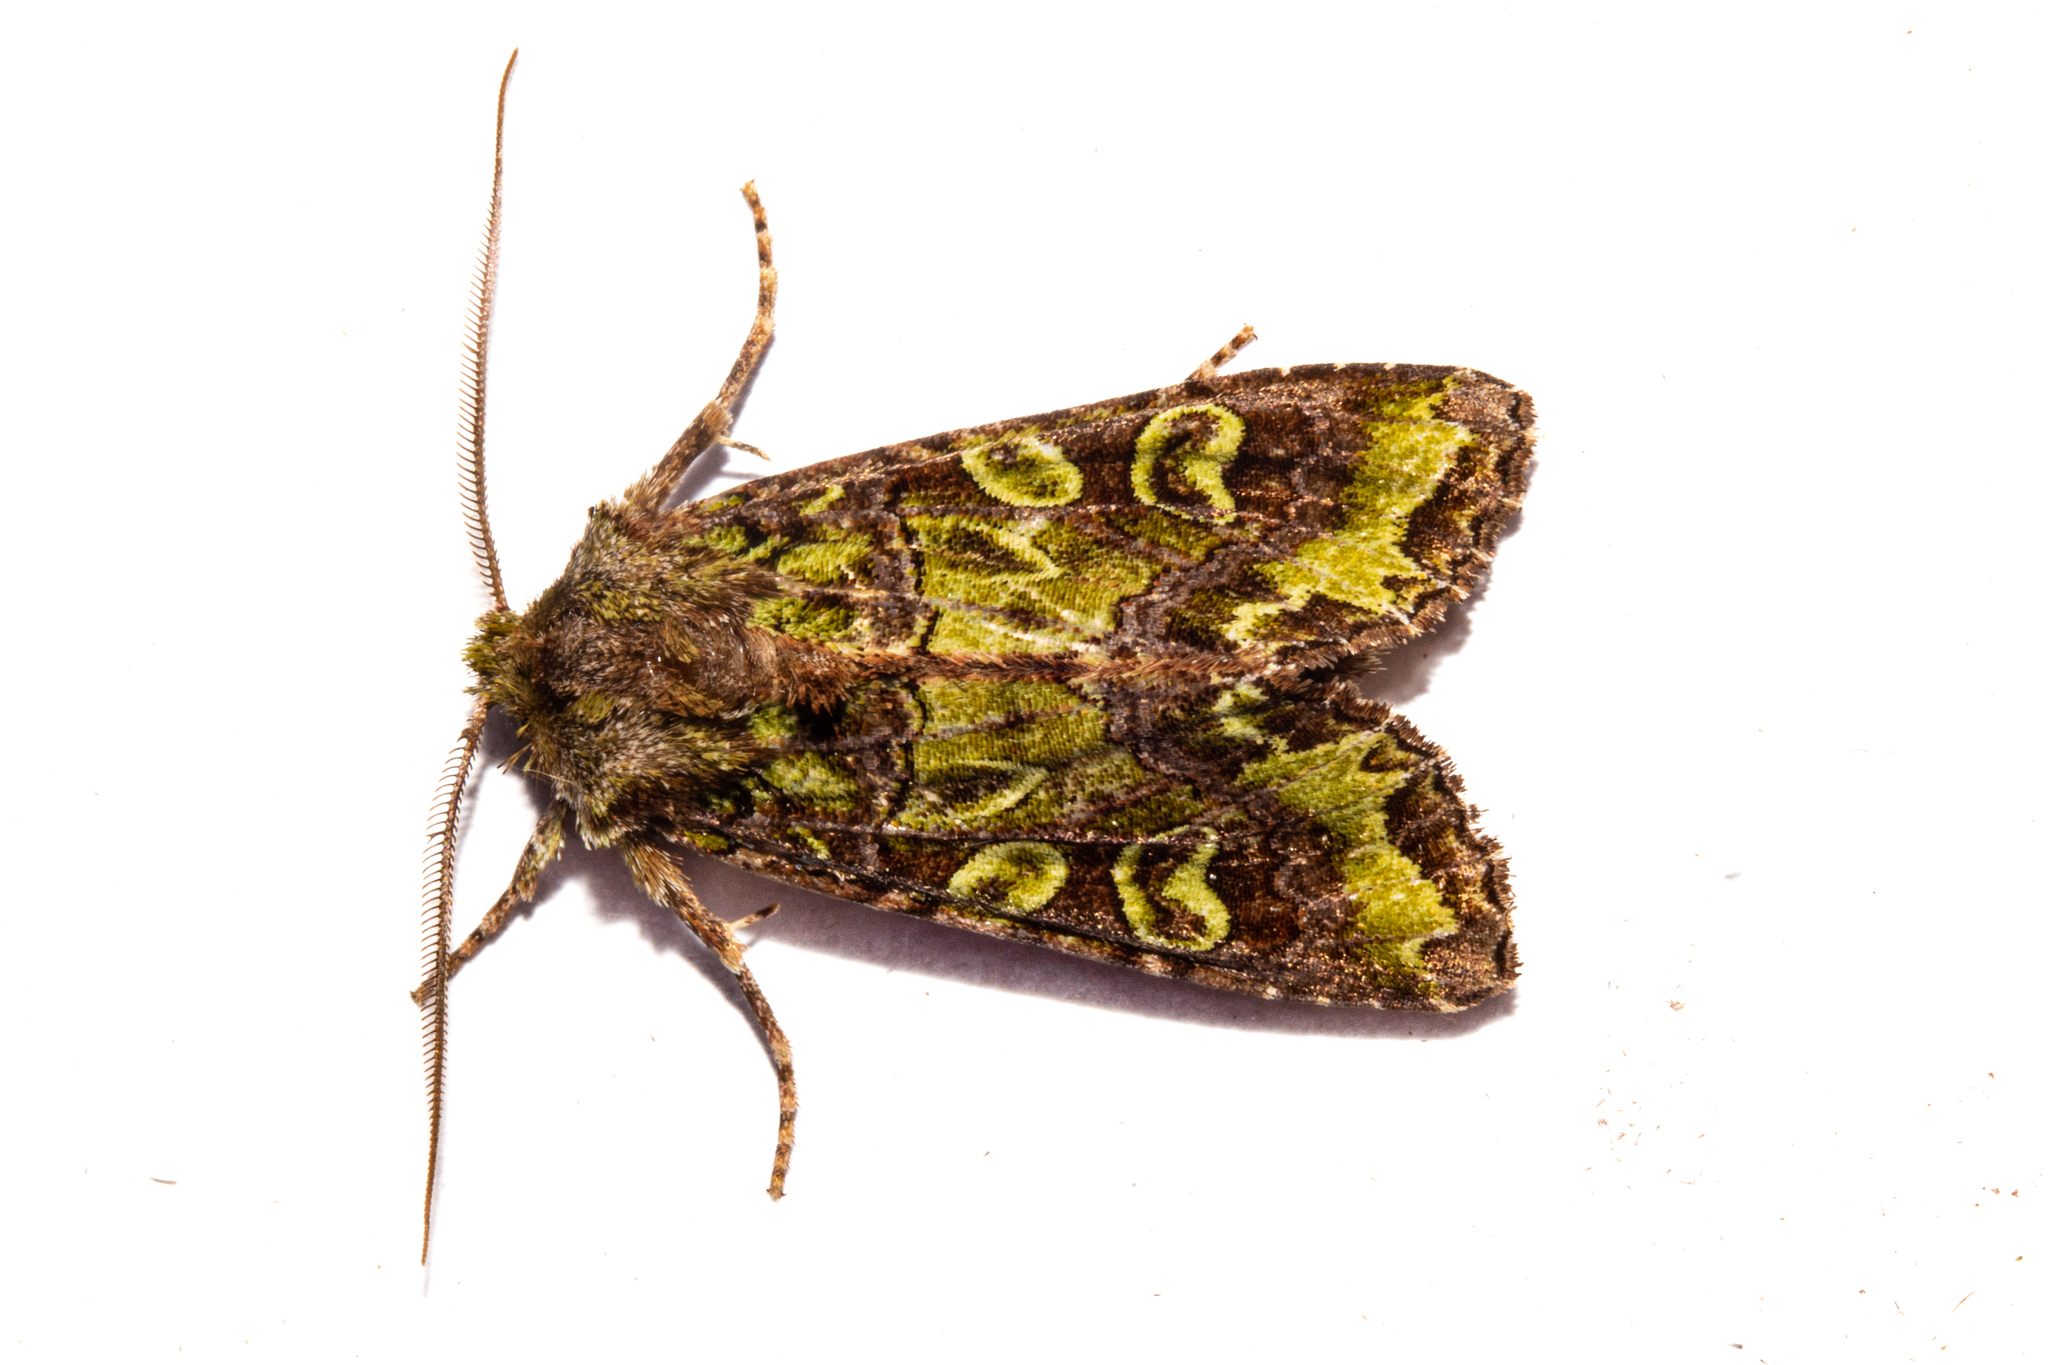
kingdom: Animalia
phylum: Arthropoda
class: Insecta
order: Lepidoptera
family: Noctuidae
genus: Ichneutica
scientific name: Ichneutica chlorodonta
